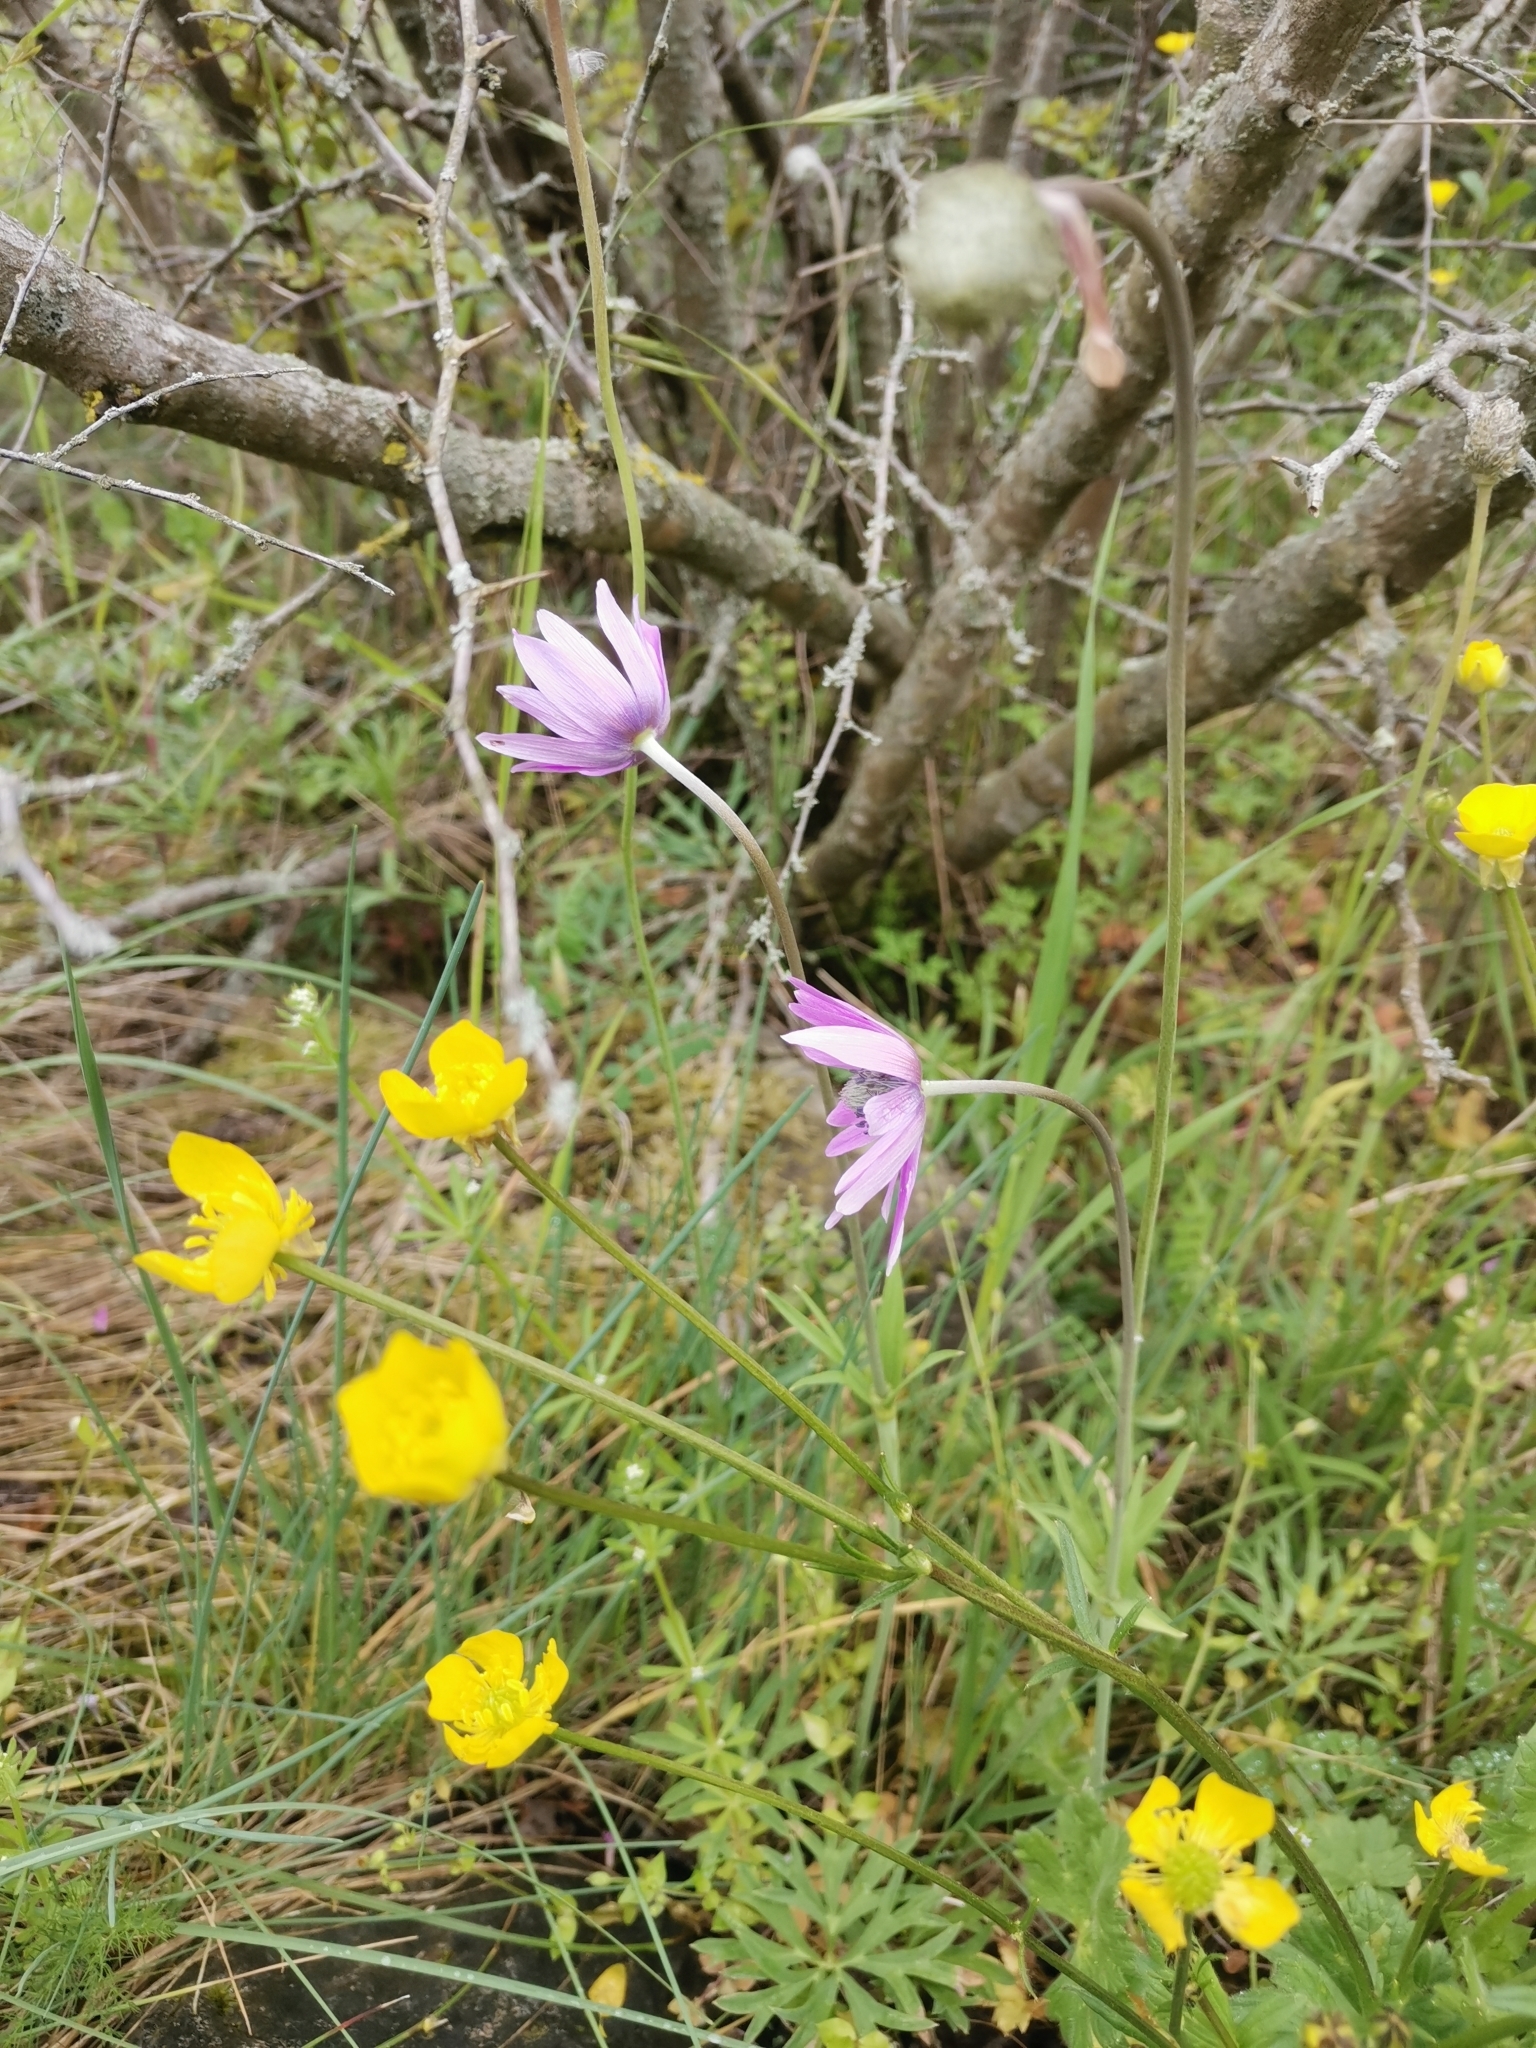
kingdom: Plantae
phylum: Tracheophyta
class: Magnoliopsida
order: Ranunculales
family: Ranunculaceae
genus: Anemone
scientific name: Anemone hortensis
